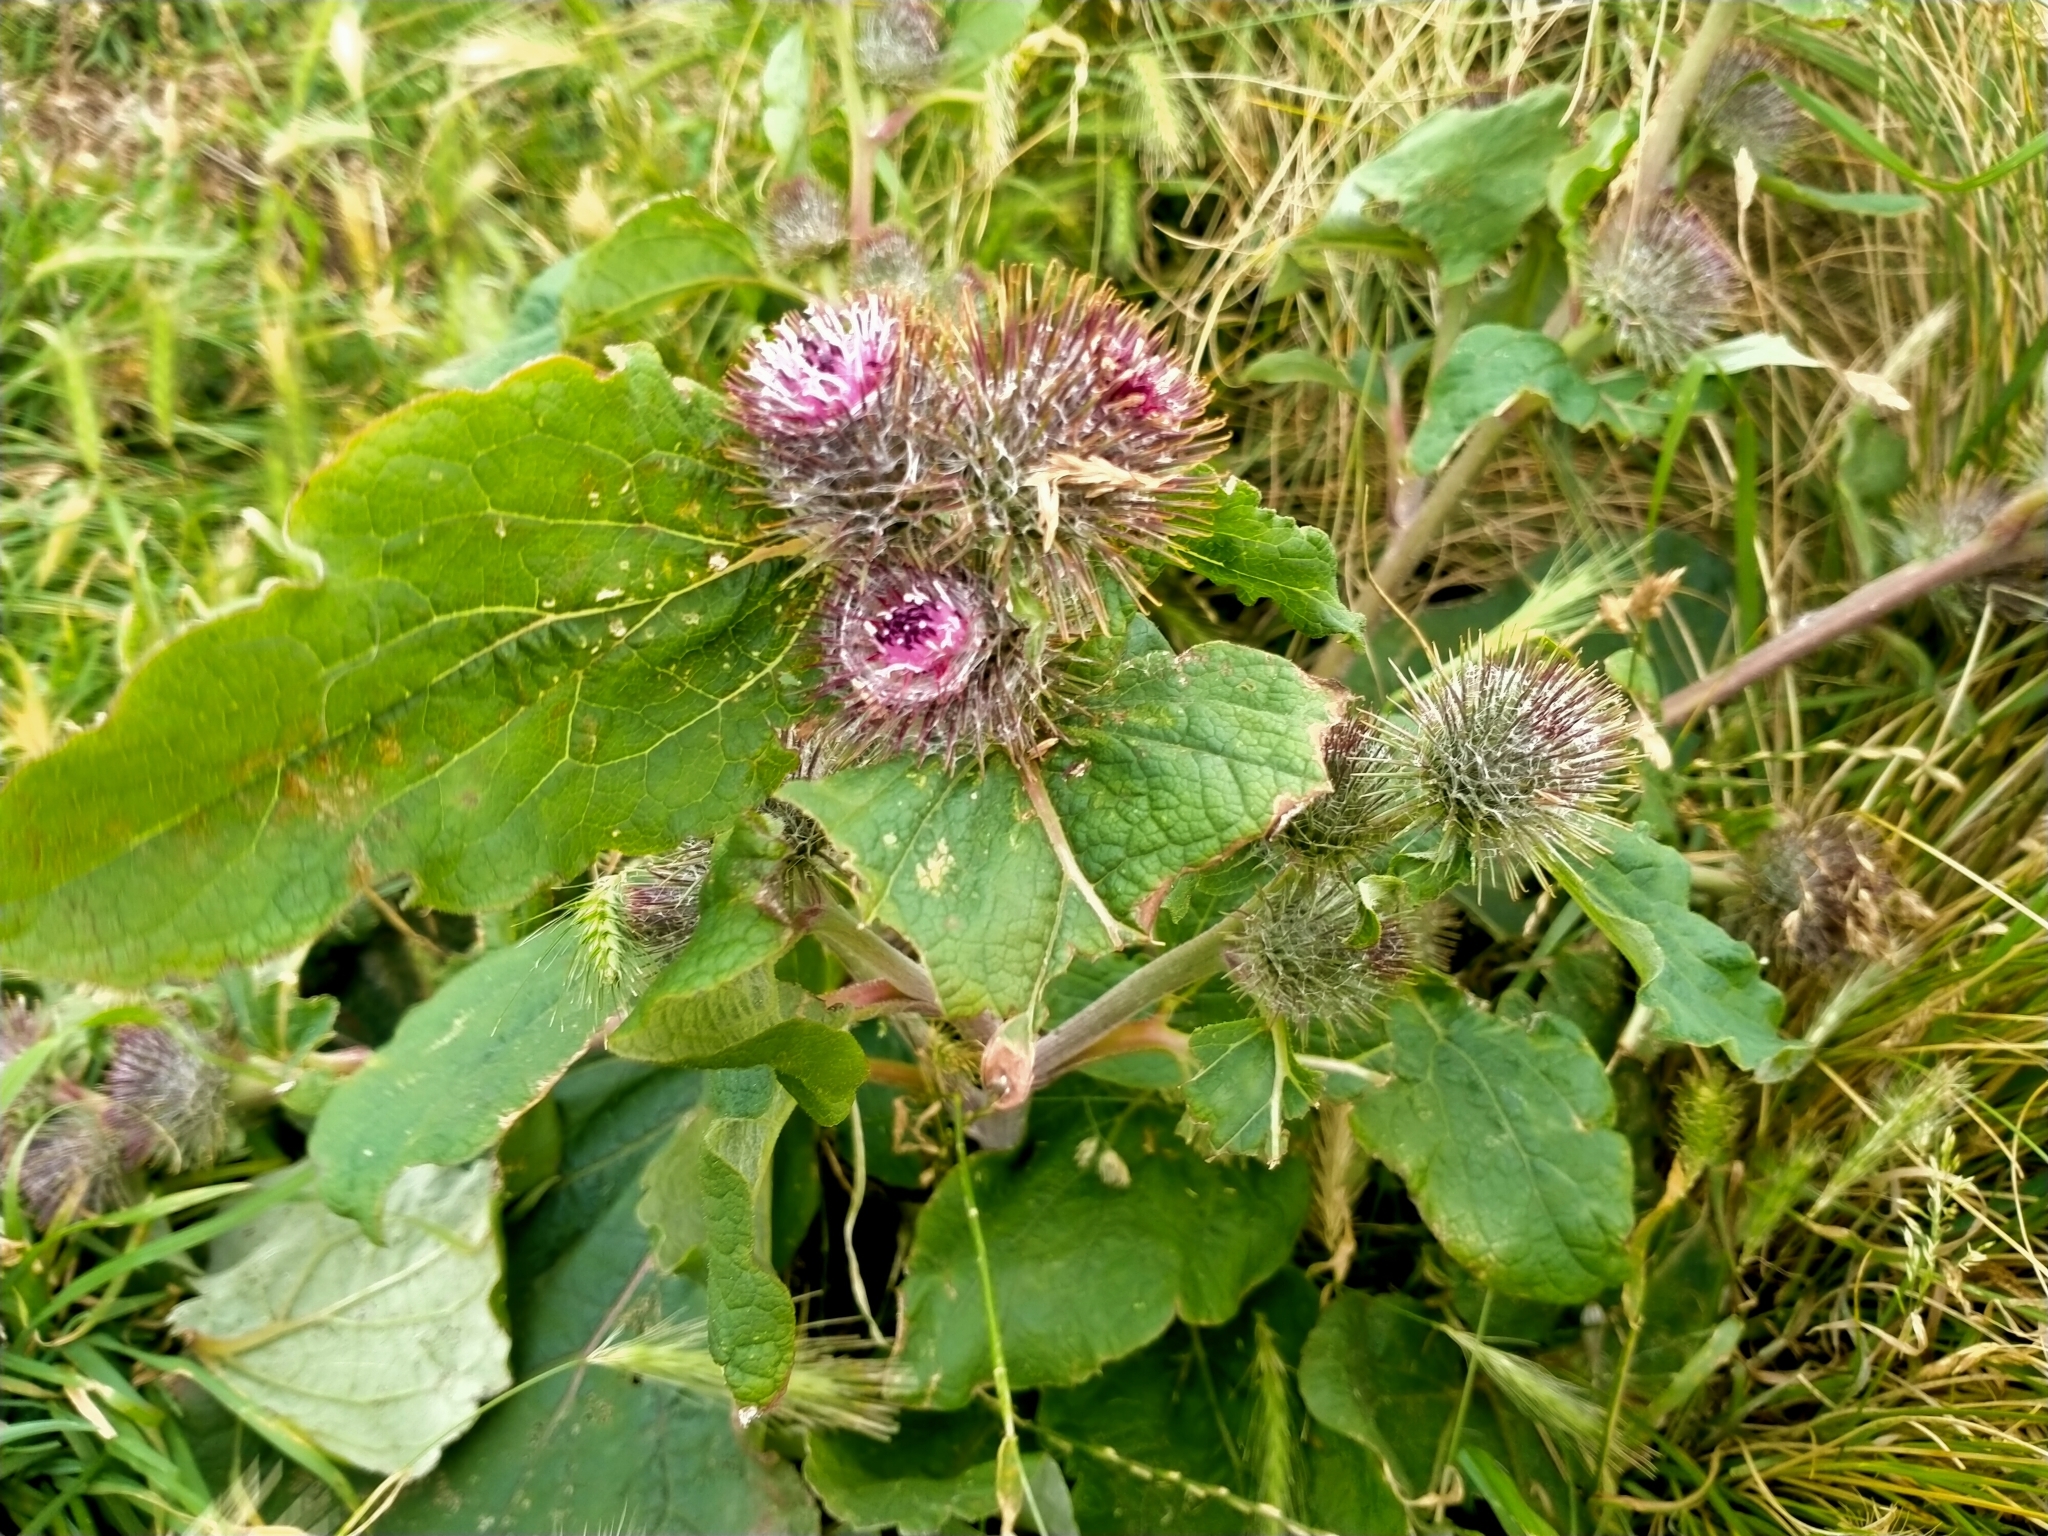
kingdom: Plantae
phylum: Tracheophyta
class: Magnoliopsida
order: Asterales
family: Asteraceae
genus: Arctium
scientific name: Arctium minus
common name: Lesser burdock
